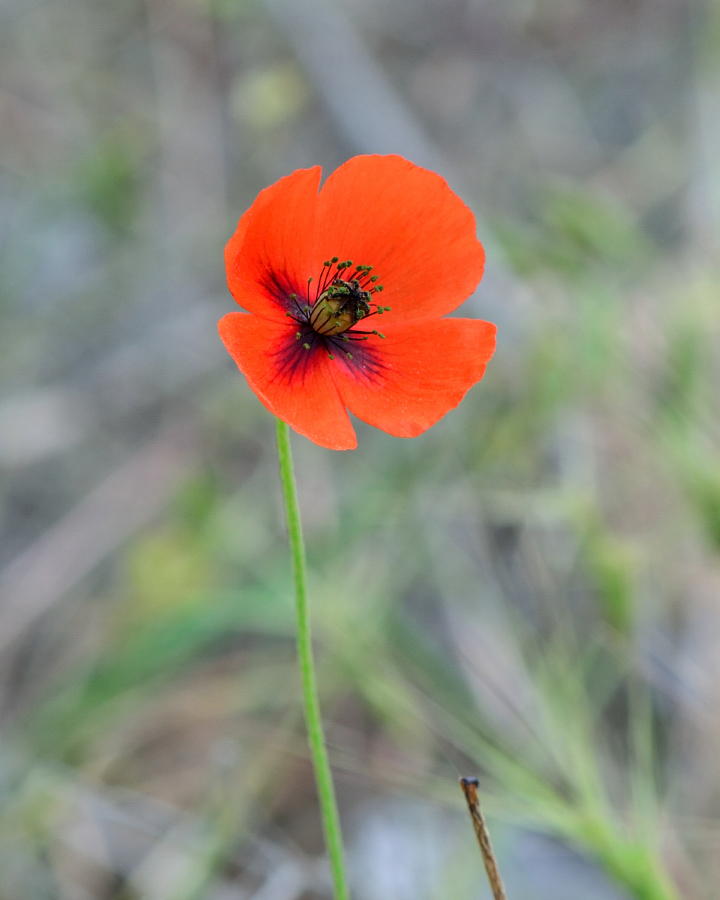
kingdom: Plantae
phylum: Tracheophyta
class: Magnoliopsida
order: Ranunculales
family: Papaveraceae
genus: Papaver
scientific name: Papaver dubium
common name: Long-headed poppy
